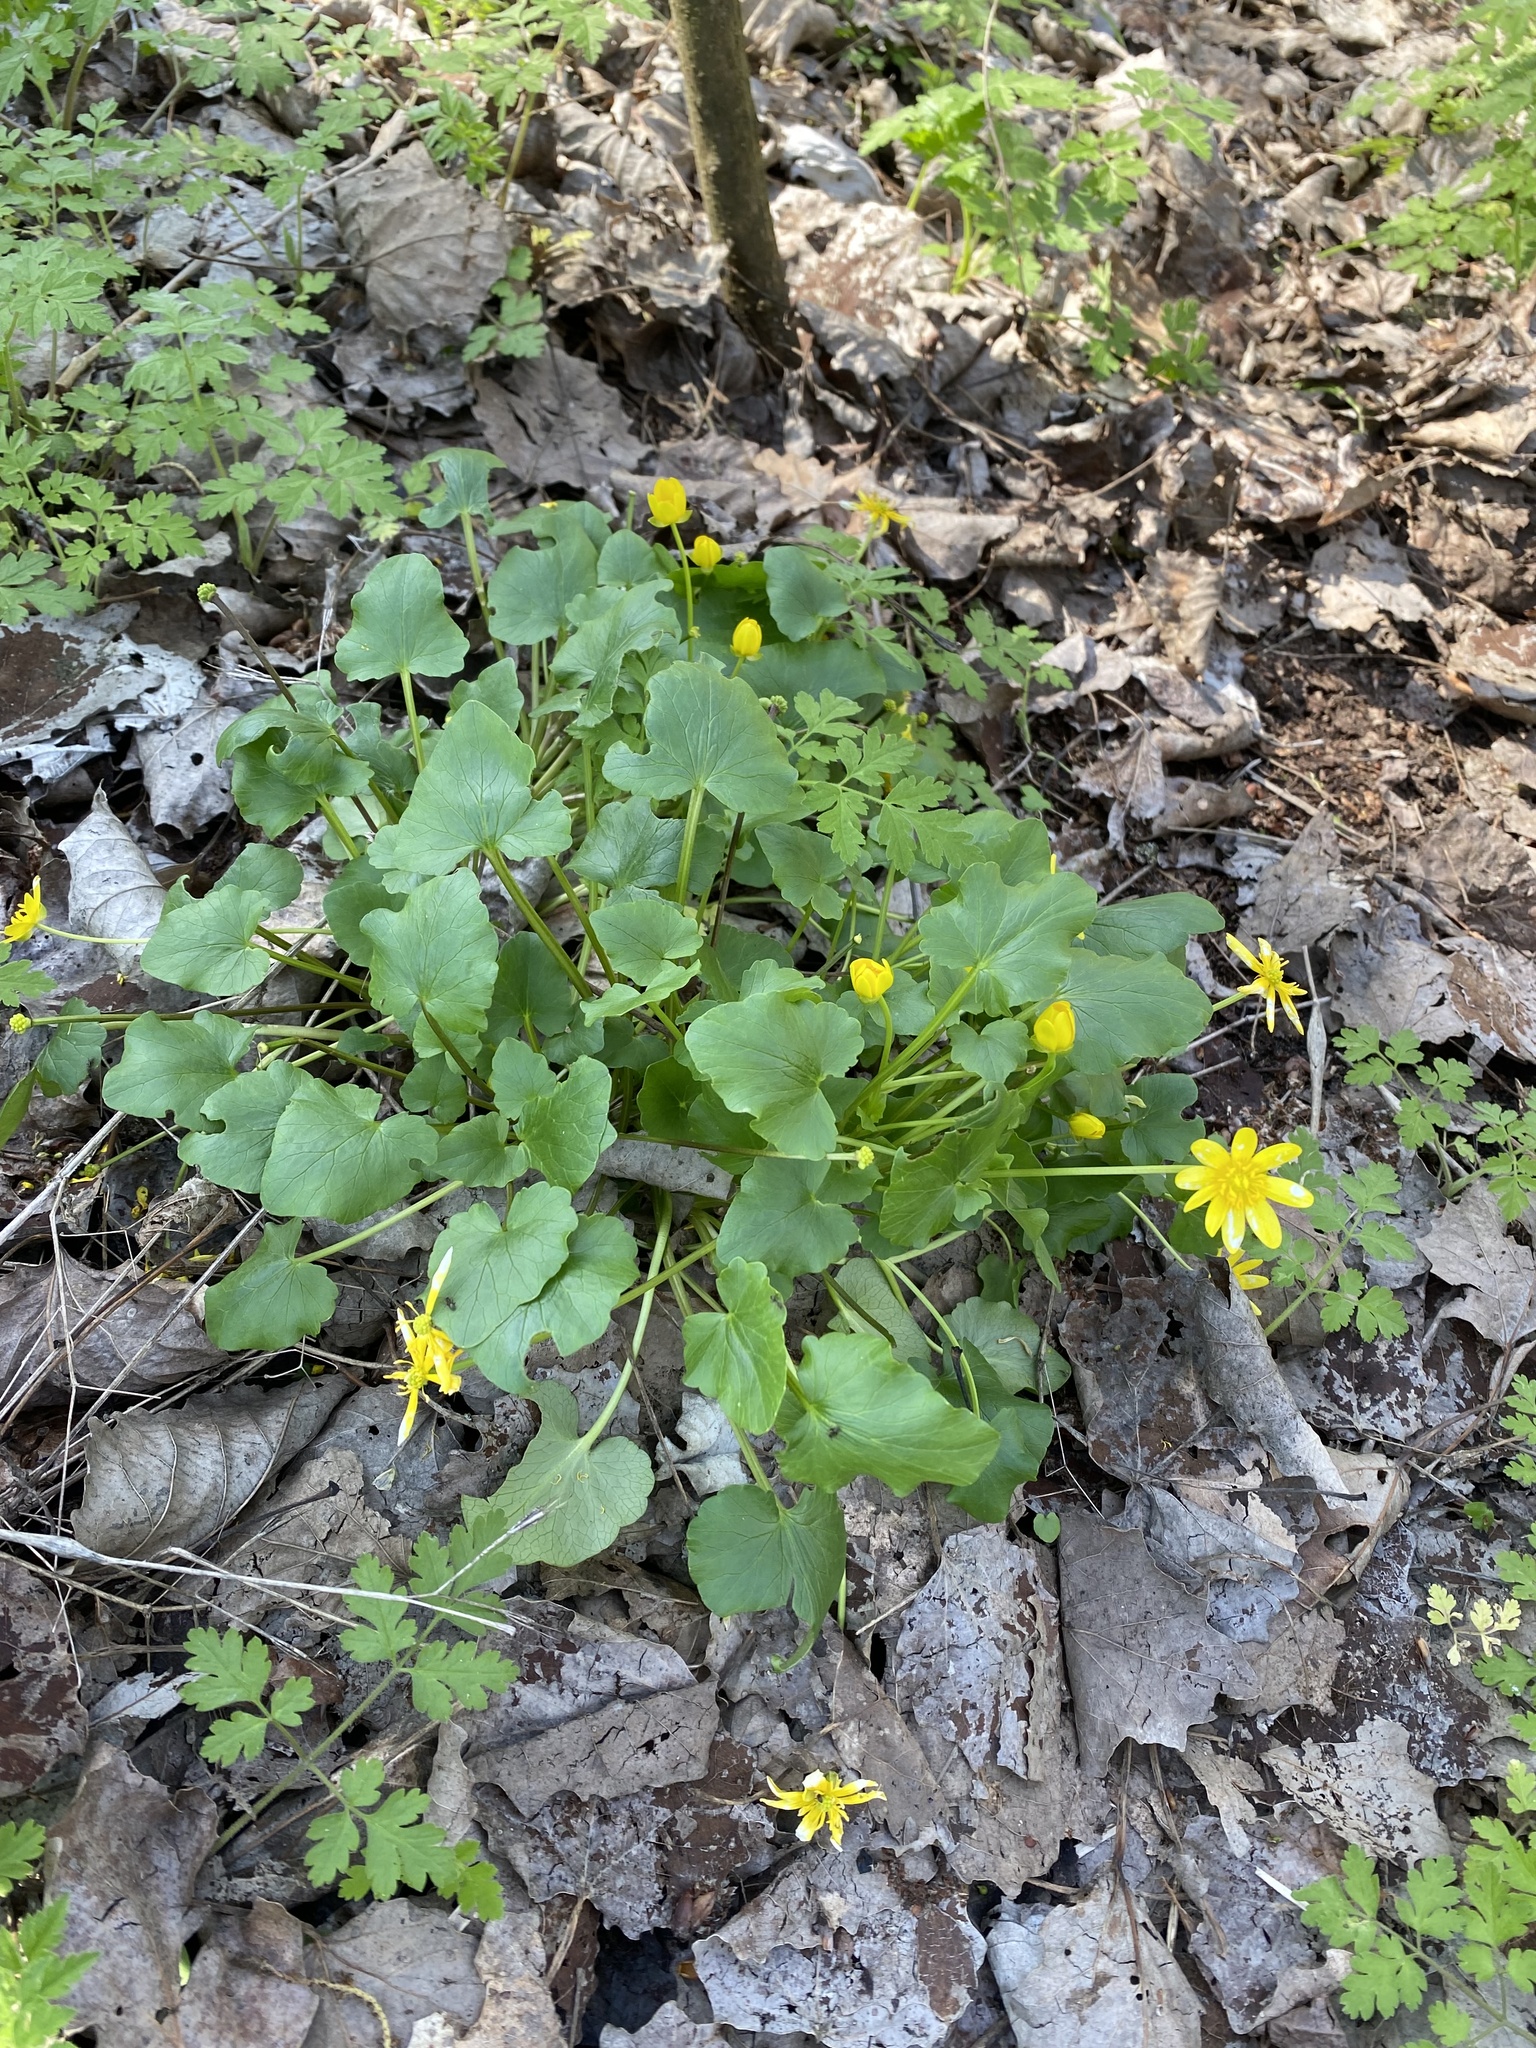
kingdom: Plantae
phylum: Tracheophyta
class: Magnoliopsida
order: Ranunculales
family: Ranunculaceae
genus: Ficaria
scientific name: Ficaria verna
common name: Lesser celandine
